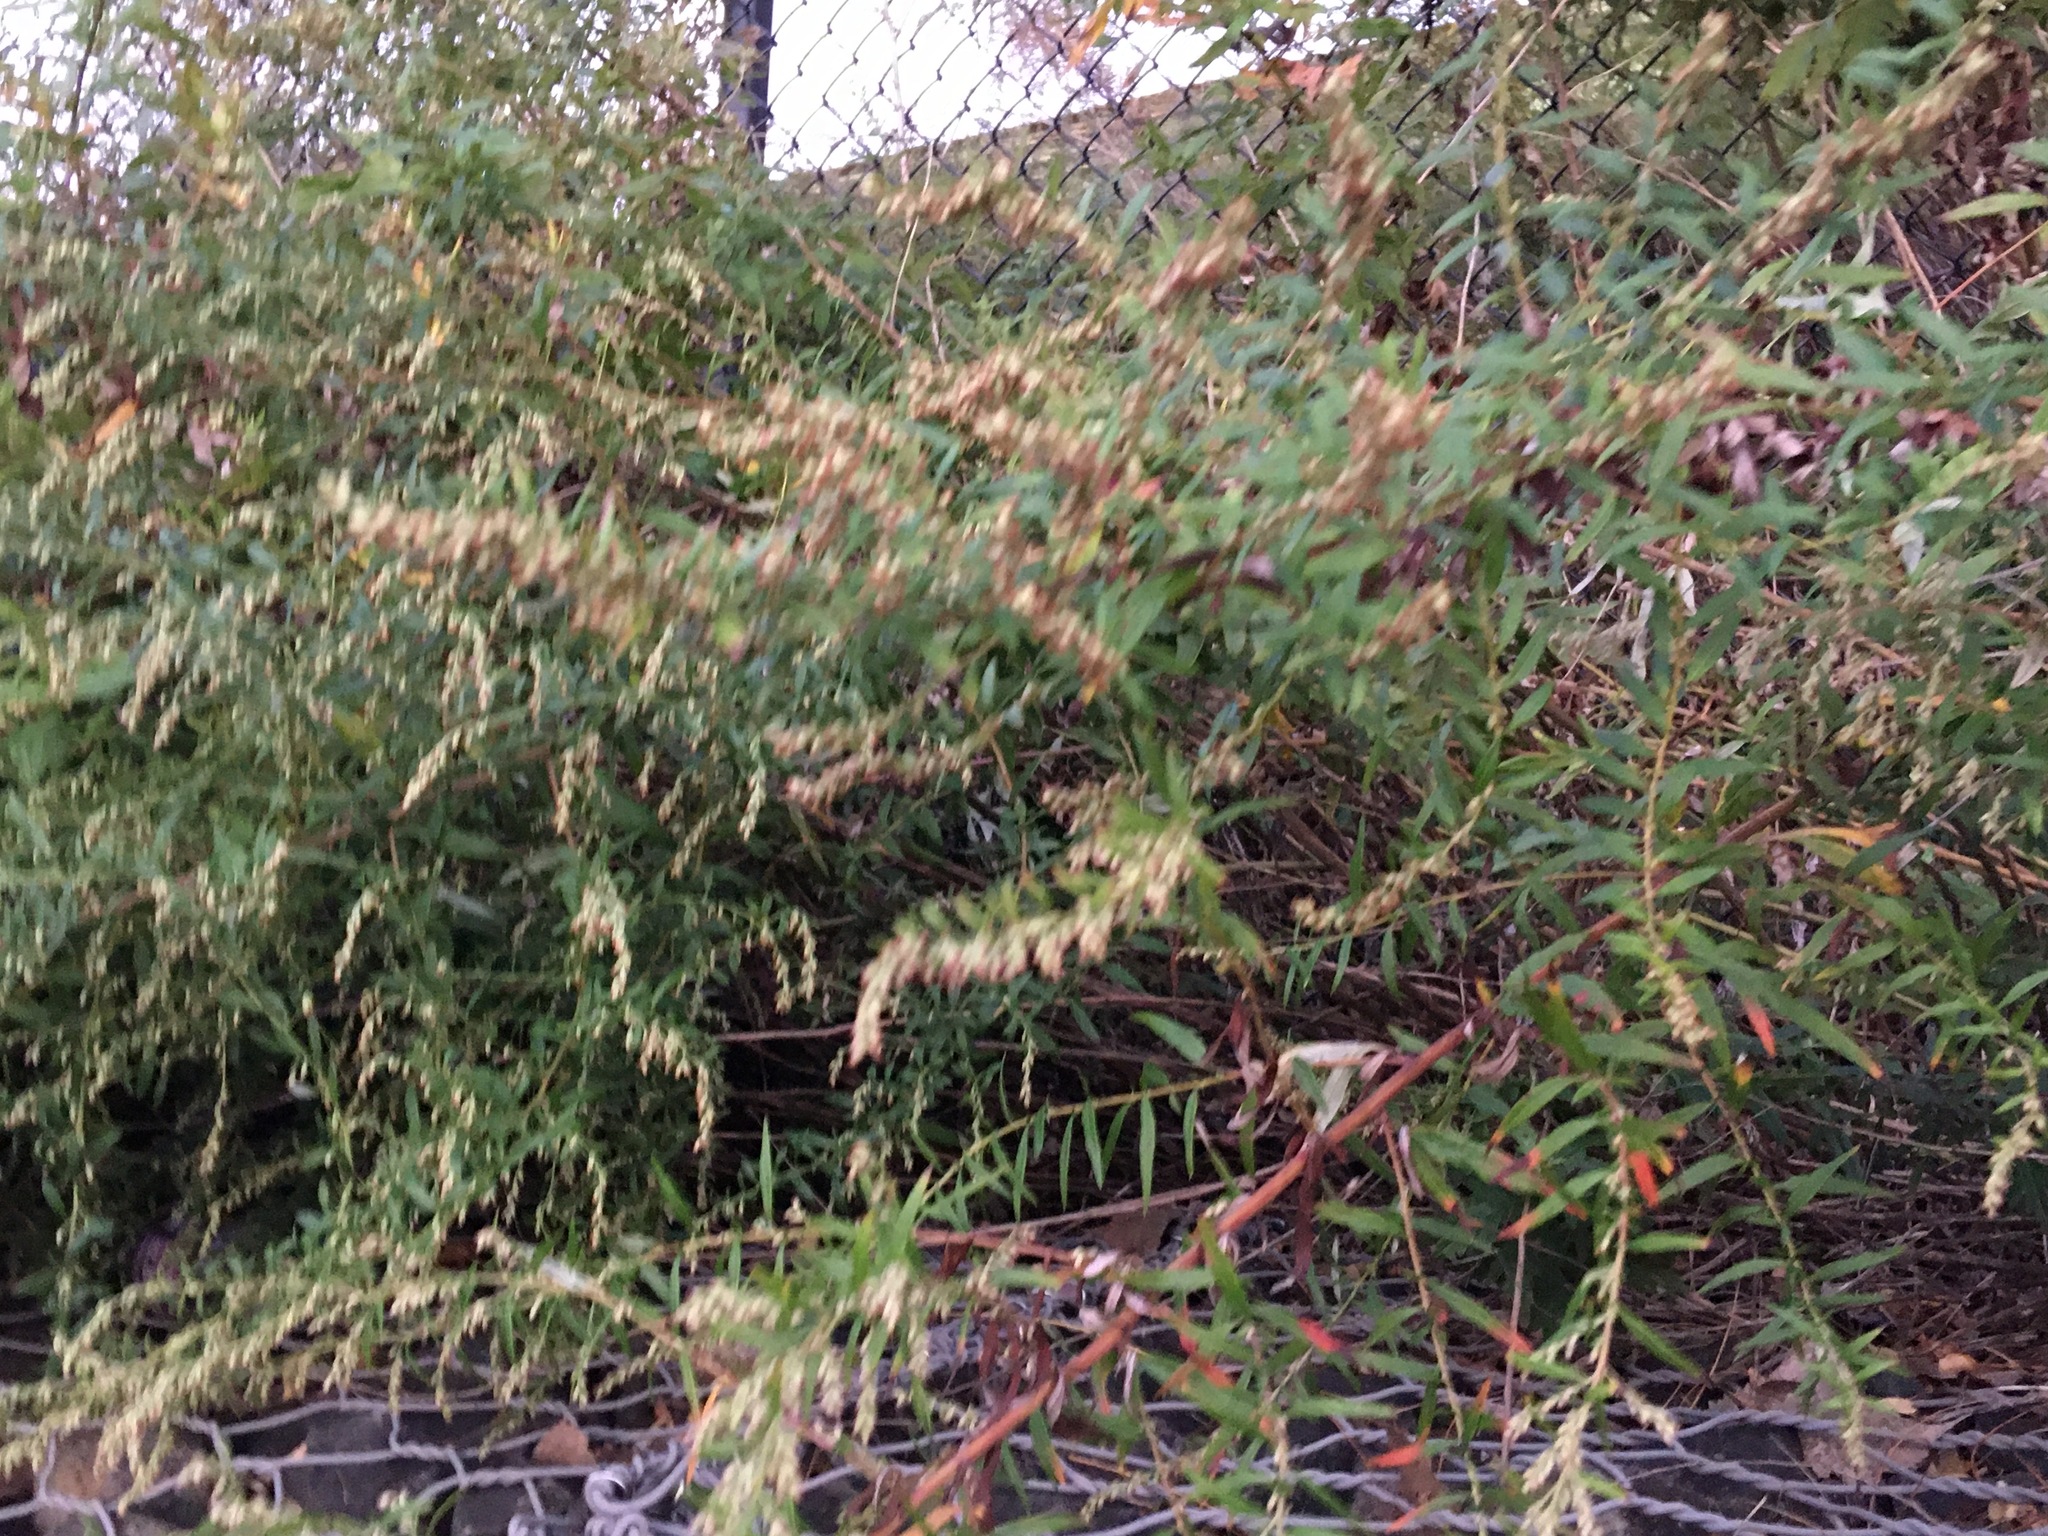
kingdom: Plantae
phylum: Tracheophyta
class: Magnoliopsida
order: Asterales
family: Asteraceae
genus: Artemisia
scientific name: Artemisia vulgaris
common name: Mugwort
